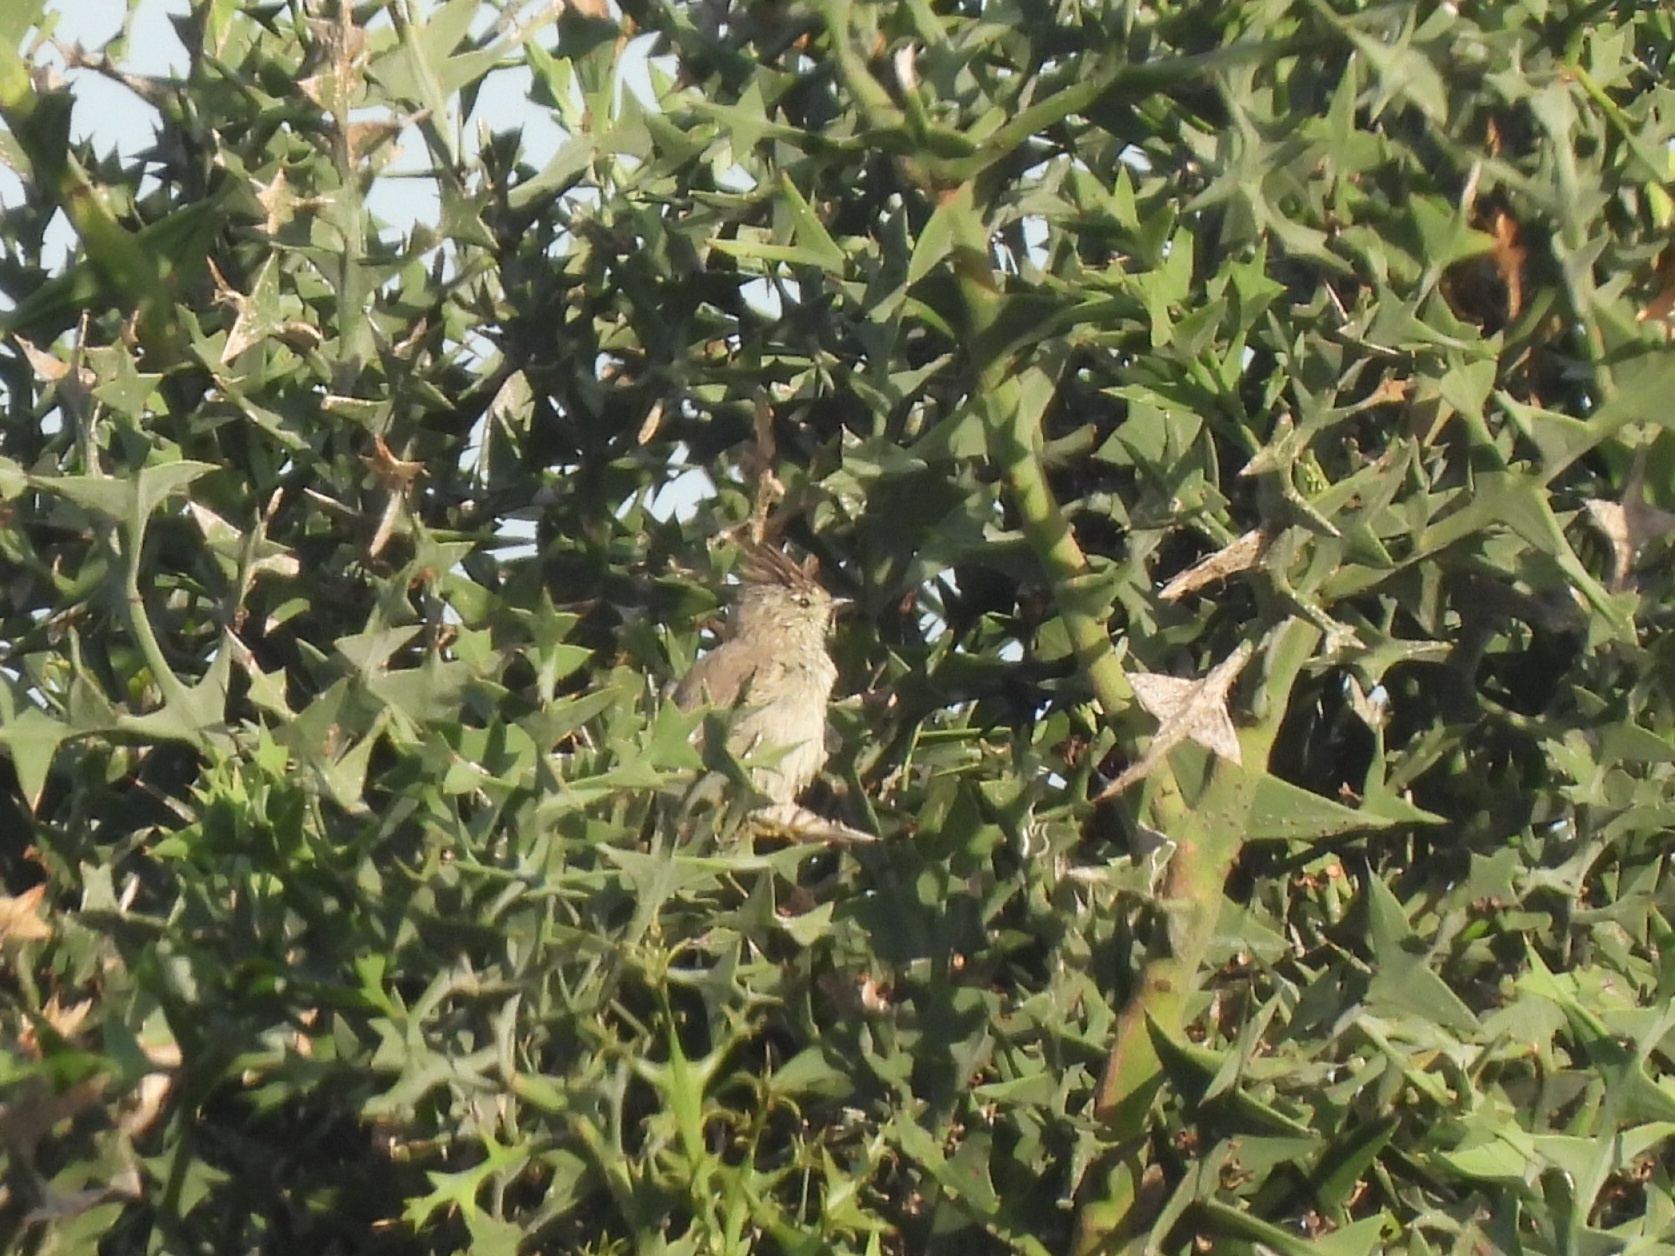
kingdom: Animalia
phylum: Chordata
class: Aves
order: Passeriformes
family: Furnariidae
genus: Leptasthenura
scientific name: Leptasthenura platensis
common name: Tufted tit-spinetail
